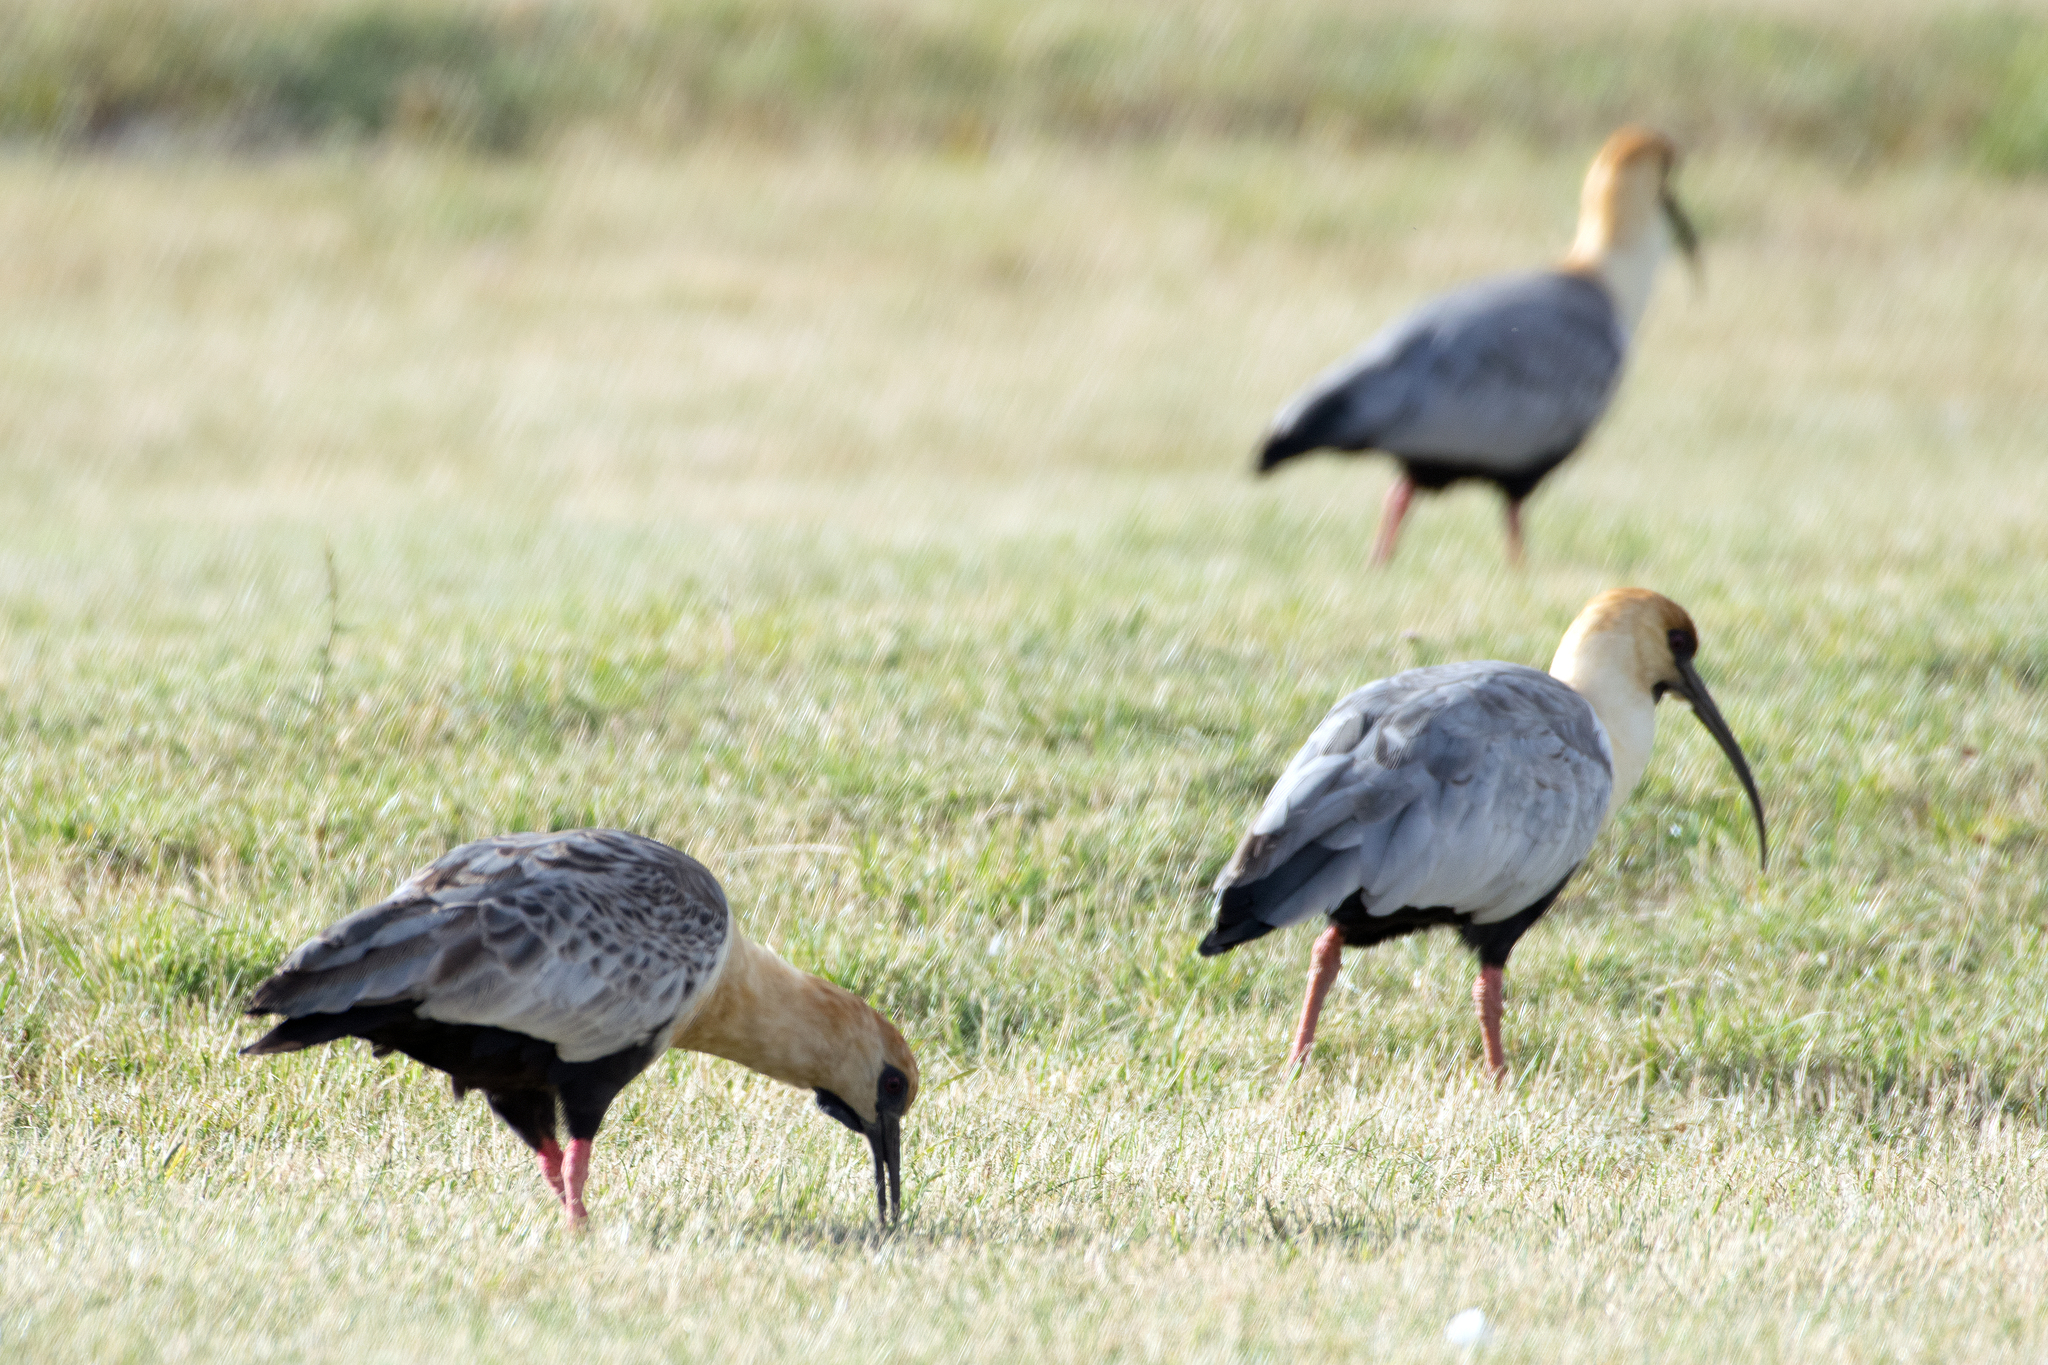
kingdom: Animalia
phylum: Chordata
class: Aves
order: Pelecaniformes
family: Threskiornithidae
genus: Theristicus
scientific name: Theristicus melanopis
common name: Black-faced ibis
